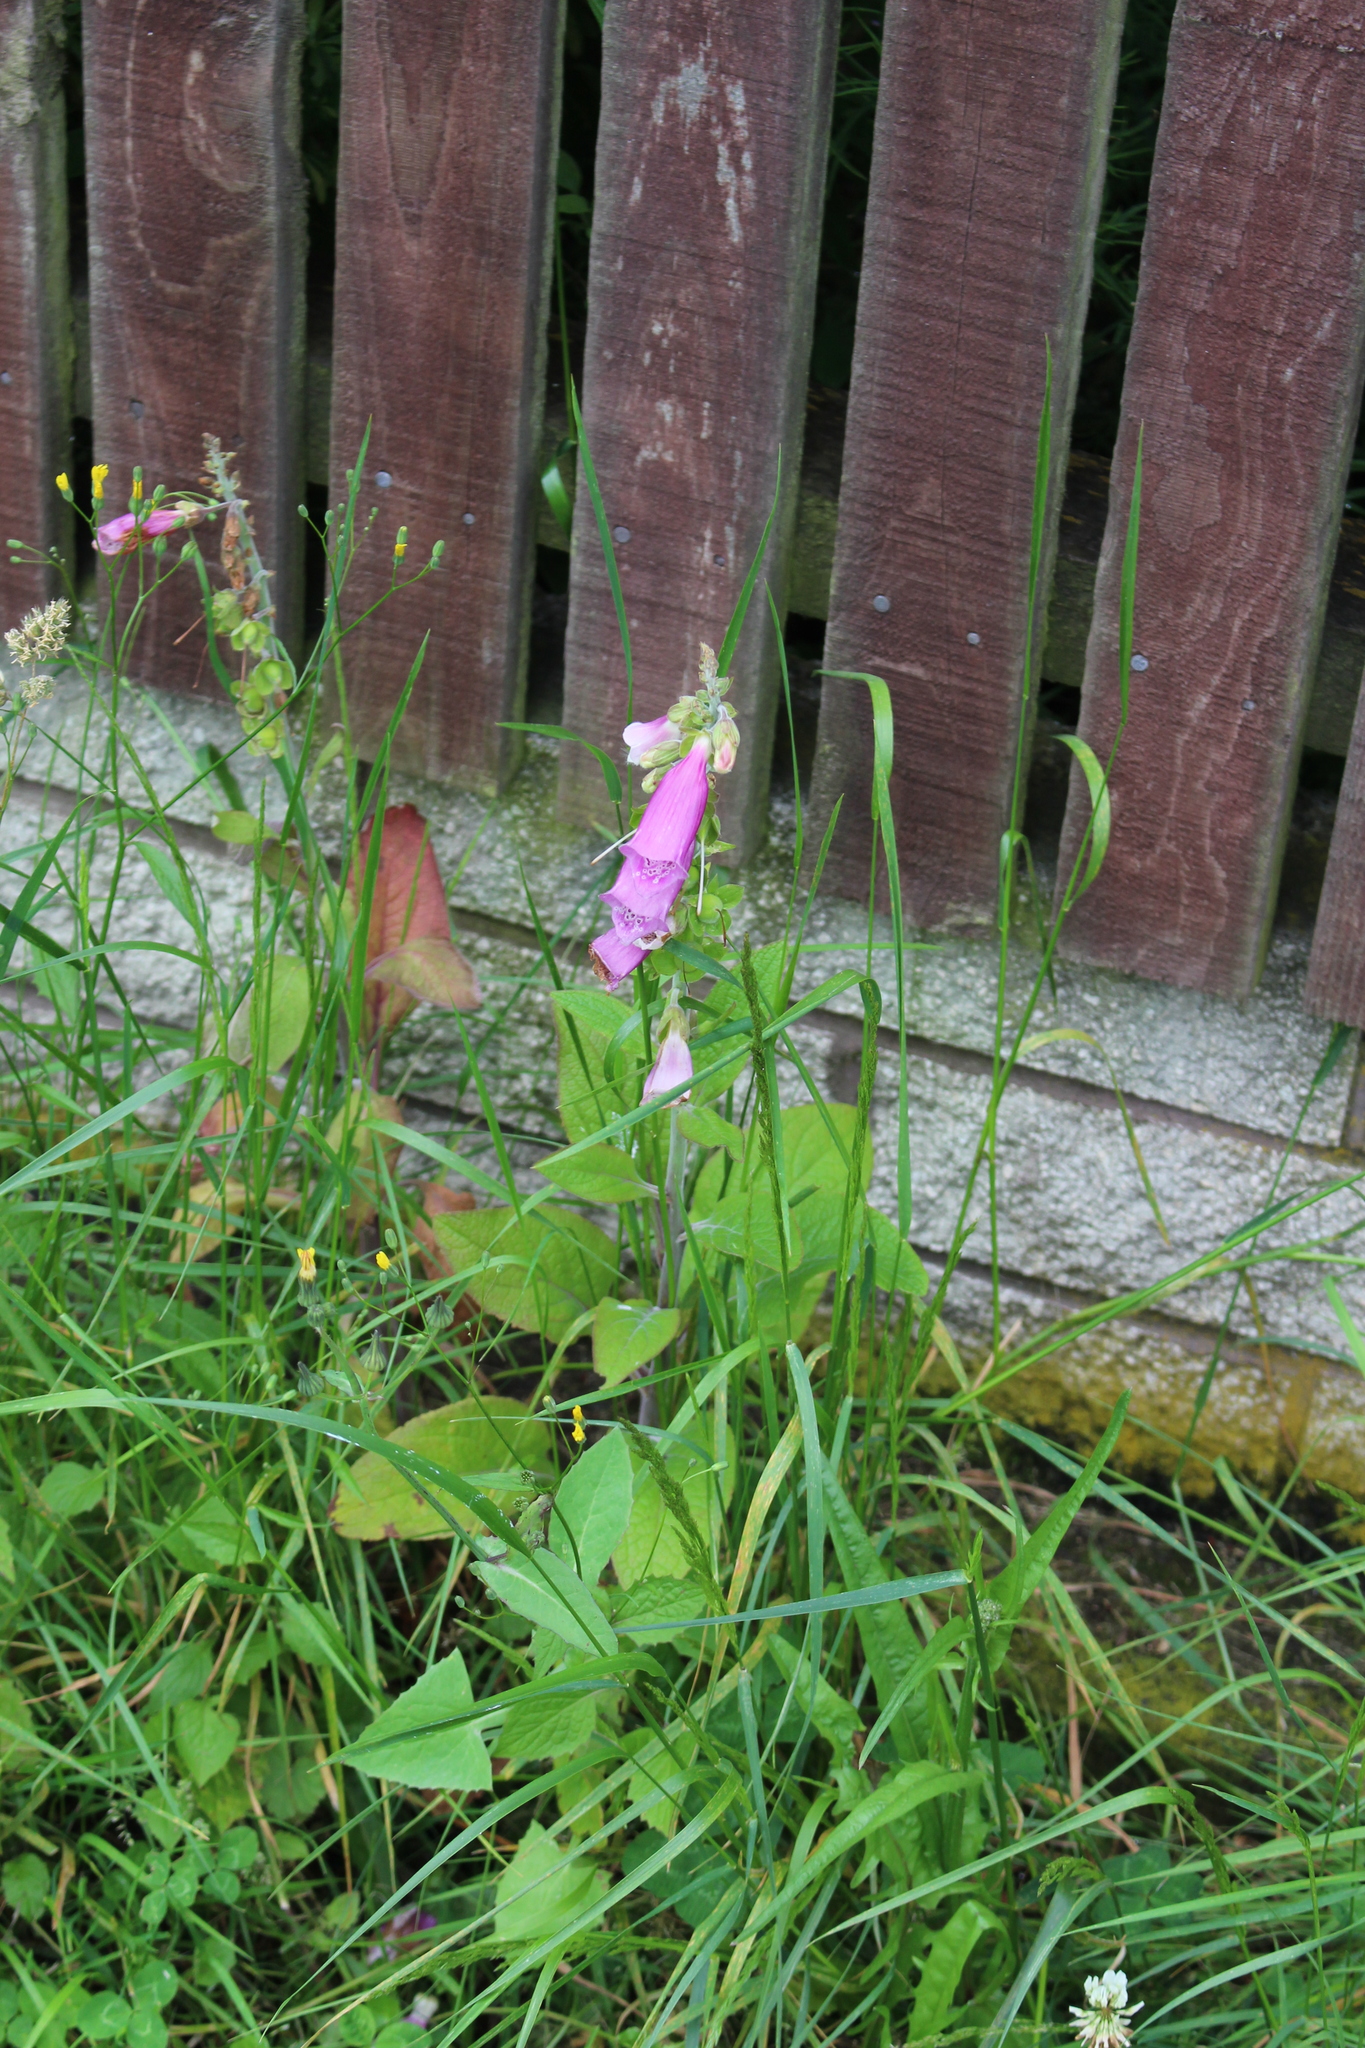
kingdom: Plantae
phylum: Tracheophyta
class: Magnoliopsida
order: Lamiales
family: Plantaginaceae
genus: Digitalis
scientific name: Digitalis purpurea
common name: Foxglove
